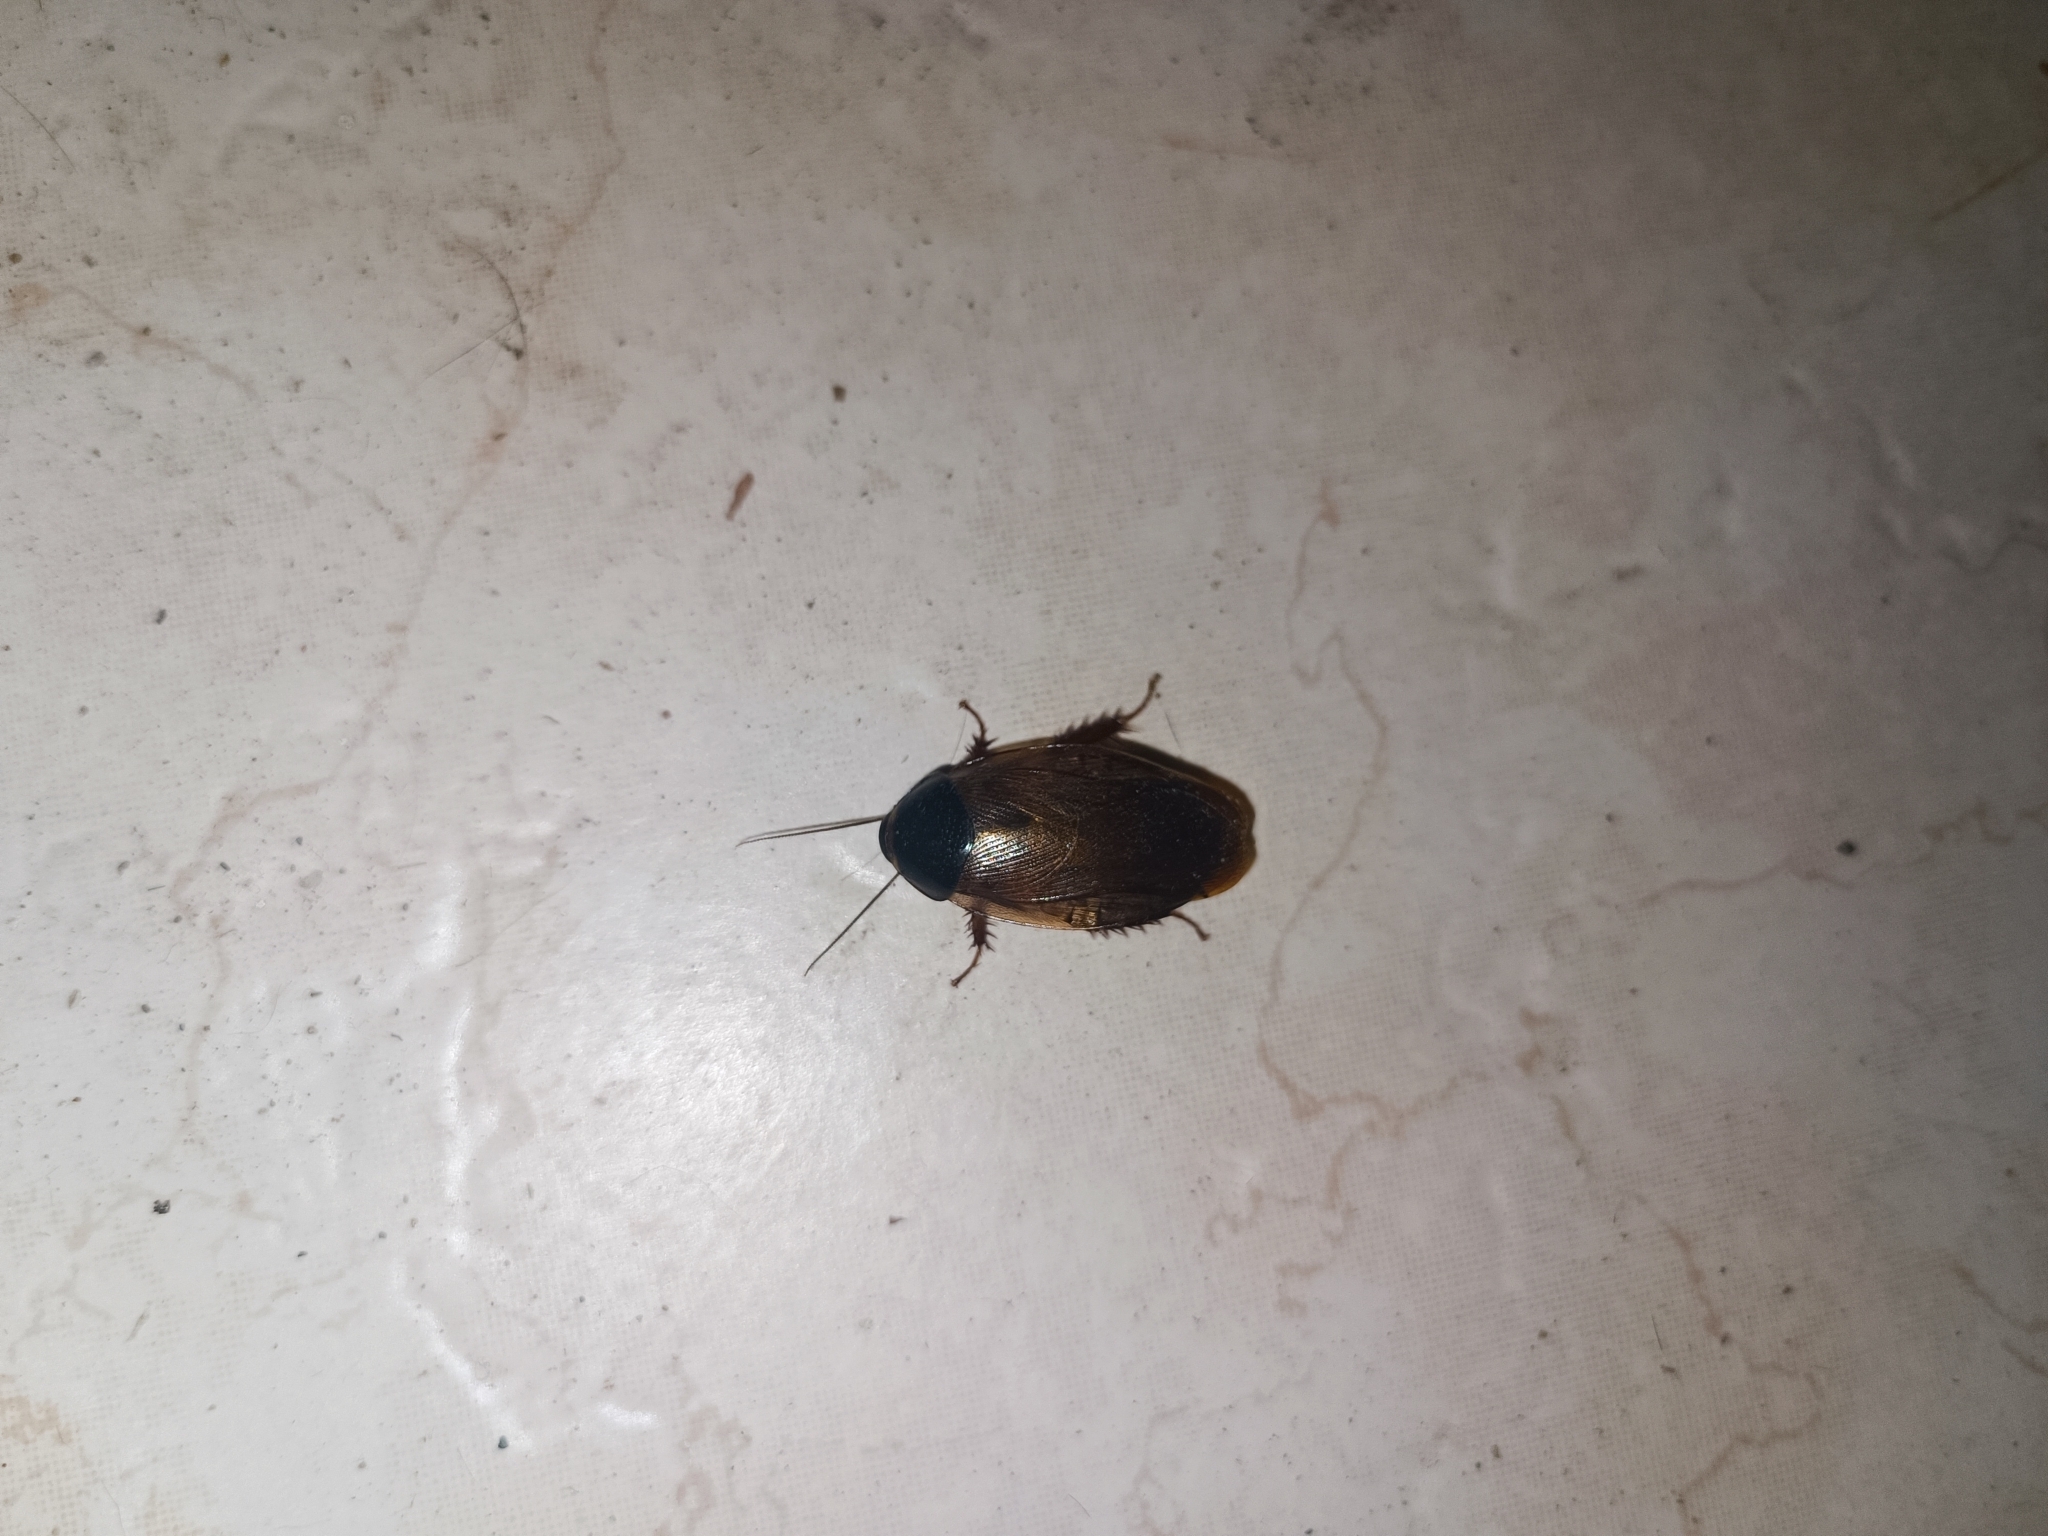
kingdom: Animalia
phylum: Arthropoda
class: Insecta
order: Blattodea
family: Blaberidae
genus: Pycnoscelus
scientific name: Pycnoscelus surinamensis
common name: Surinam cockroach
